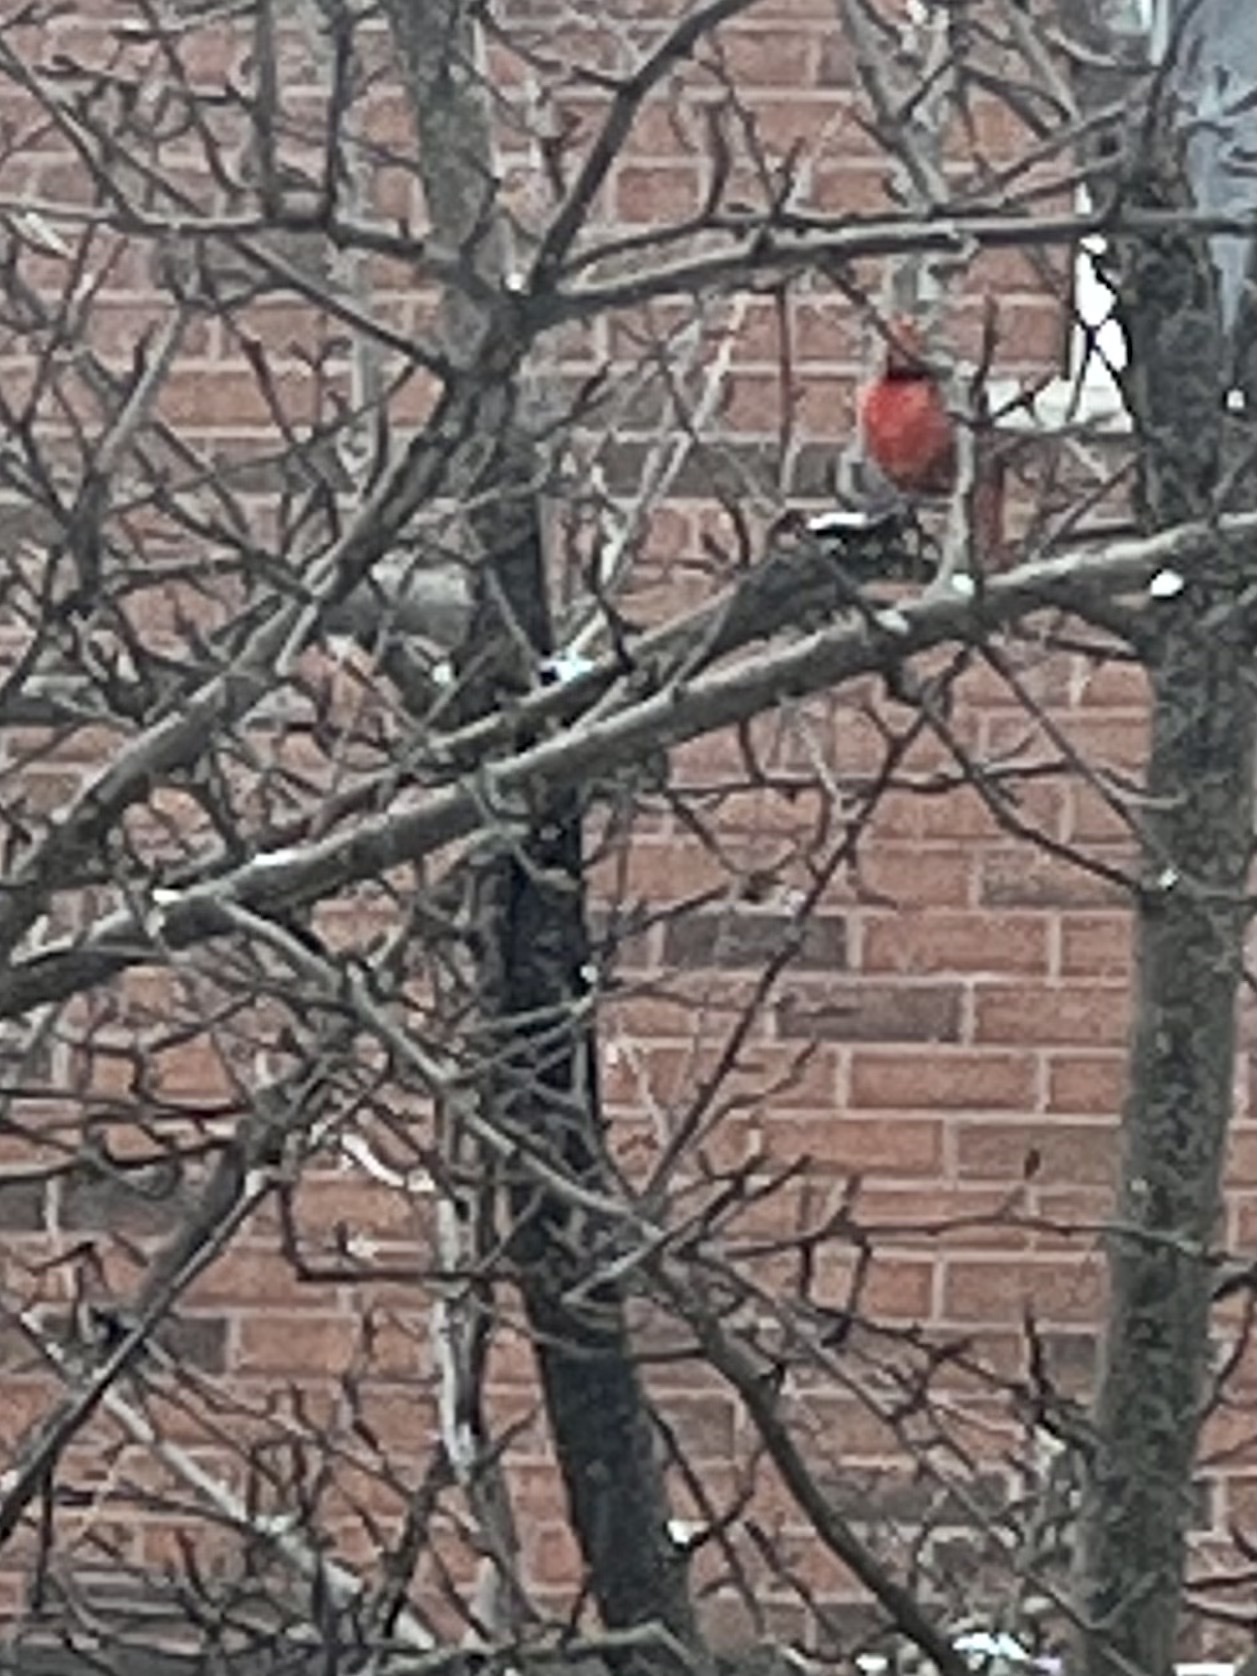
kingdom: Animalia
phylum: Chordata
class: Aves
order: Passeriformes
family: Cardinalidae
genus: Cardinalis
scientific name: Cardinalis cardinalis
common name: Northern cardinal
